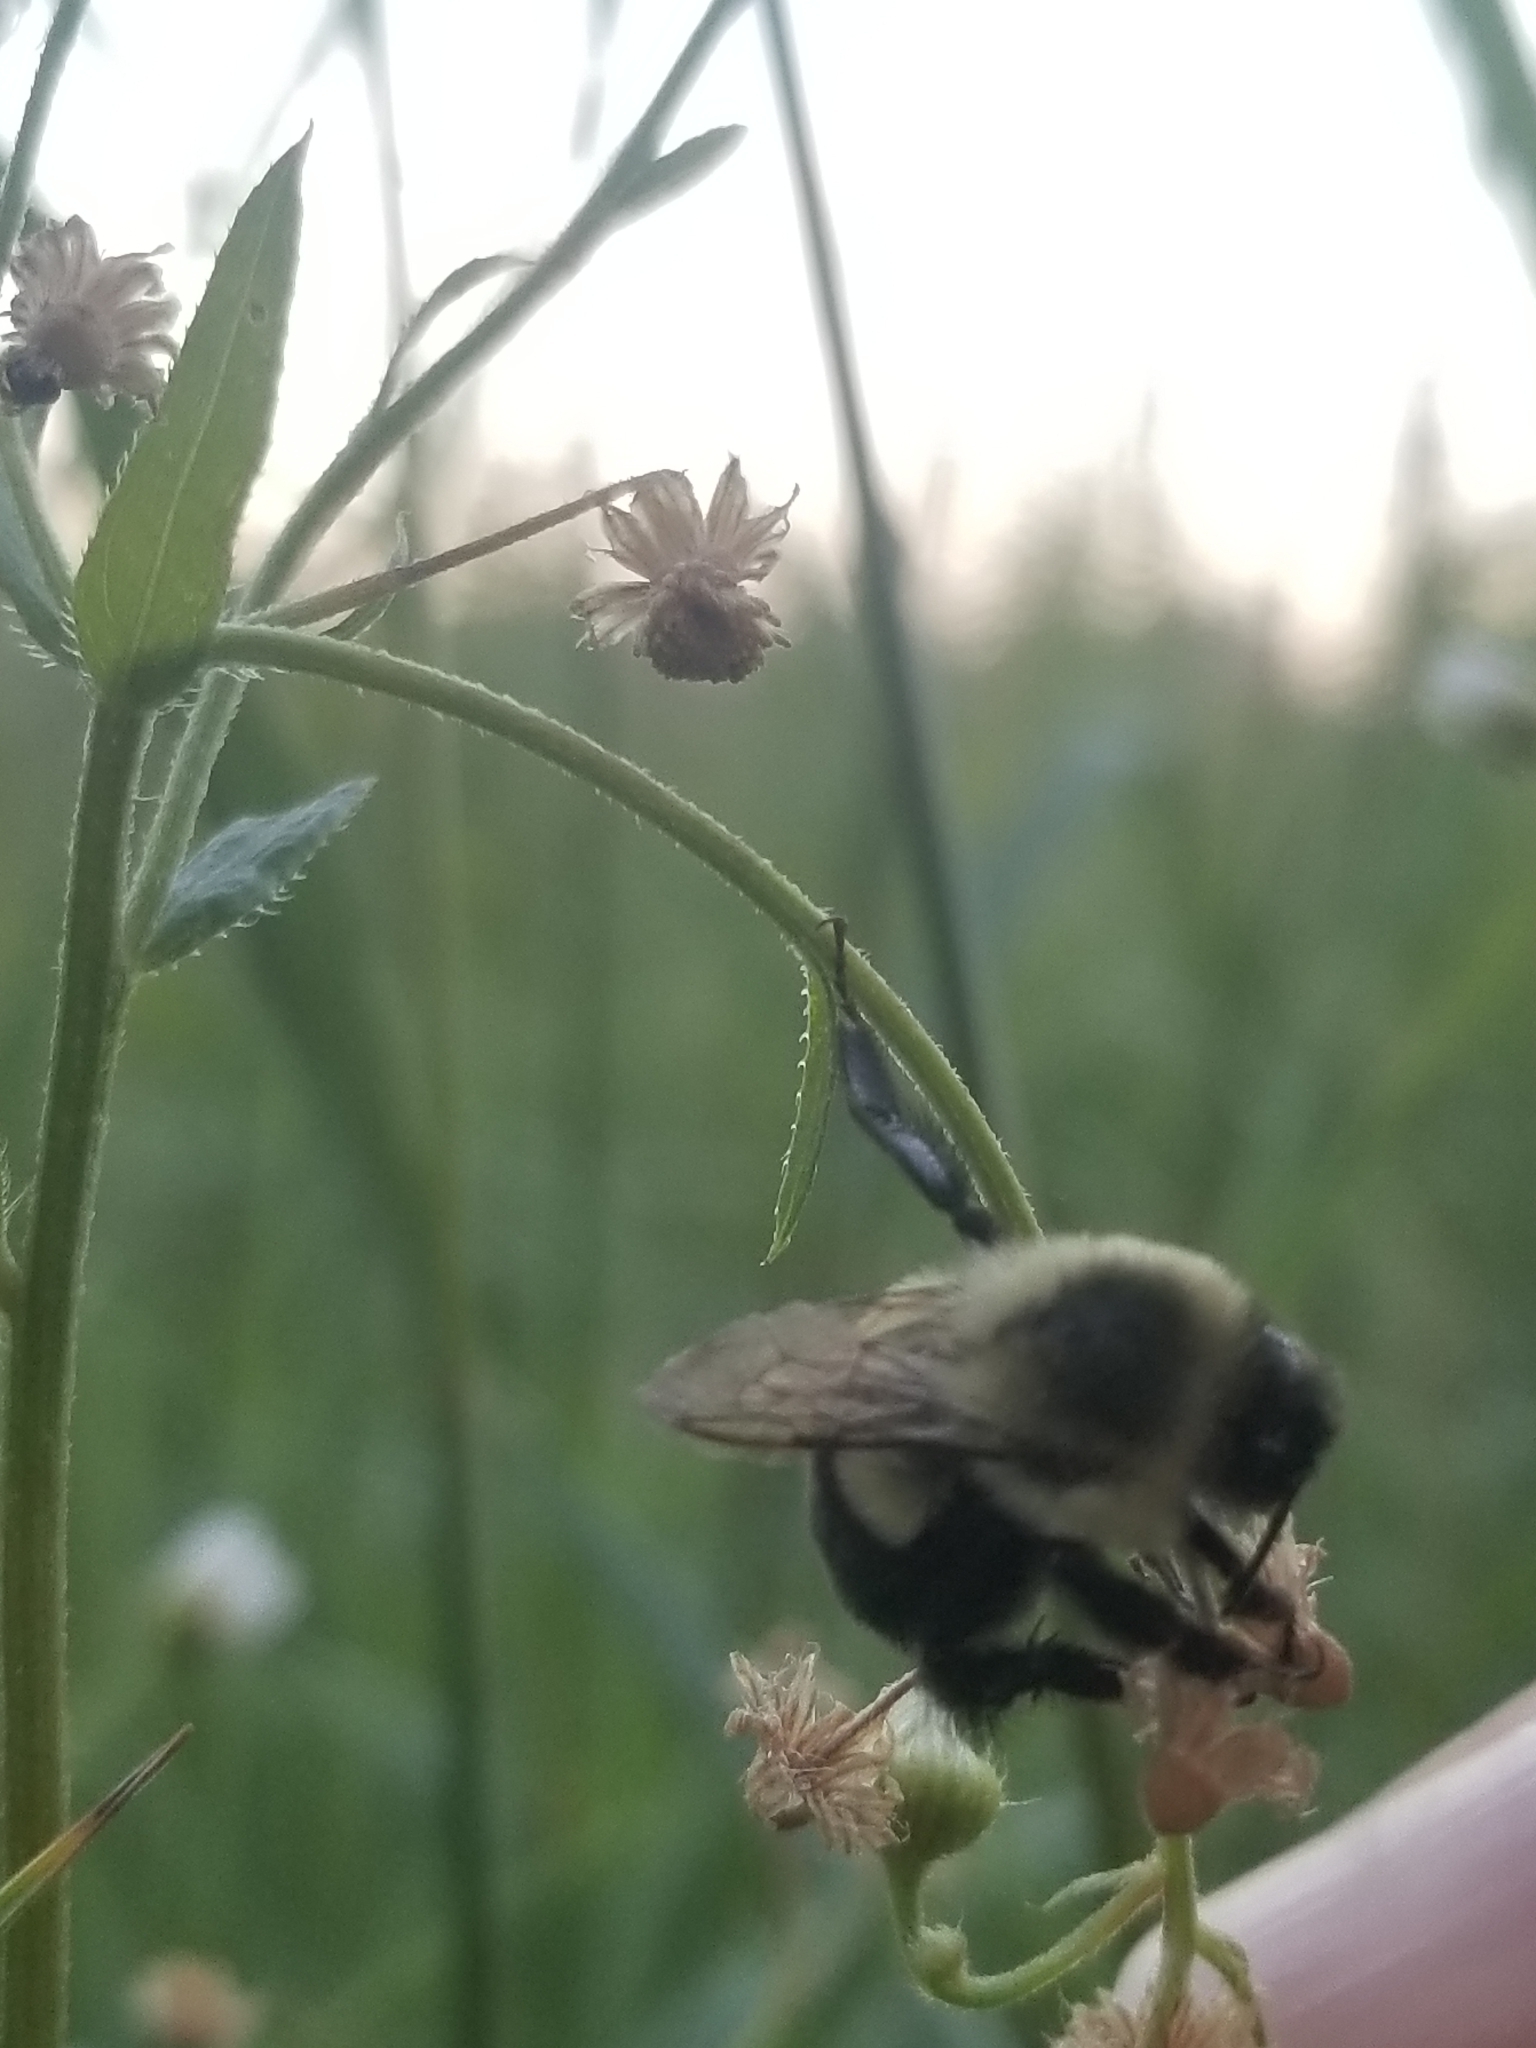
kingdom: Animalia
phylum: Arthropoda
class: Insecta
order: Hymenoptera
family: Apidae
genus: Bombus
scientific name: Bombus impatiens
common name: Common eastern bumble bee
